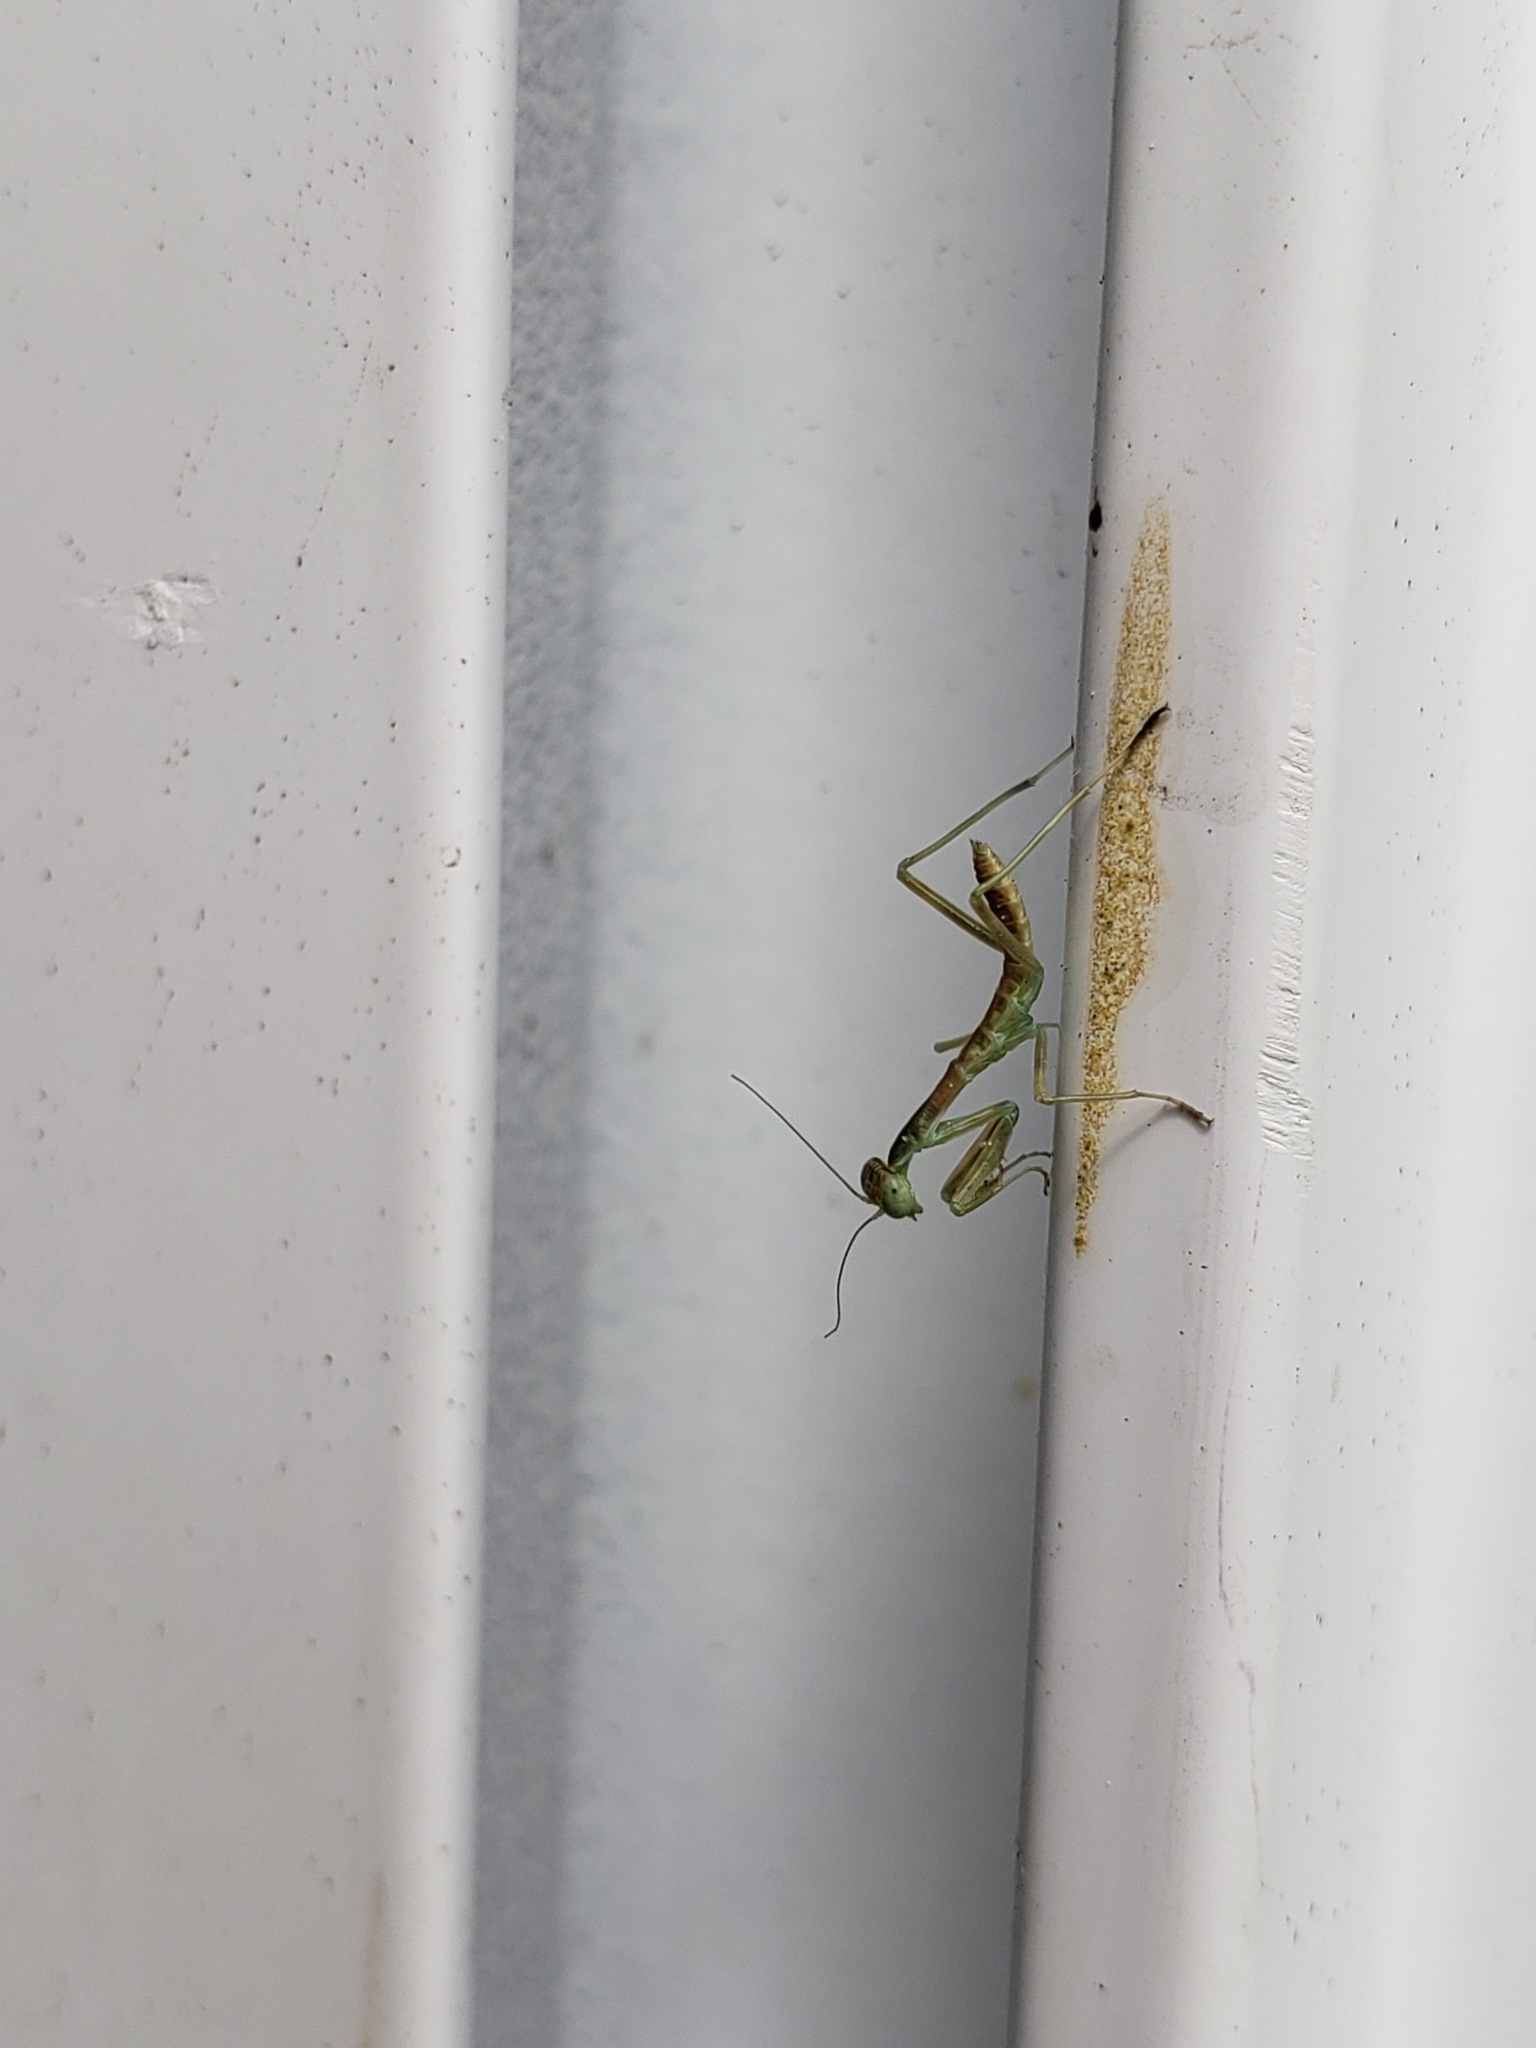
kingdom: Animalia
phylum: Arthropoda
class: Insecta
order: Mantodea
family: Mantidae
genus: Stagmomantis
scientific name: Stagmomantis limbata
